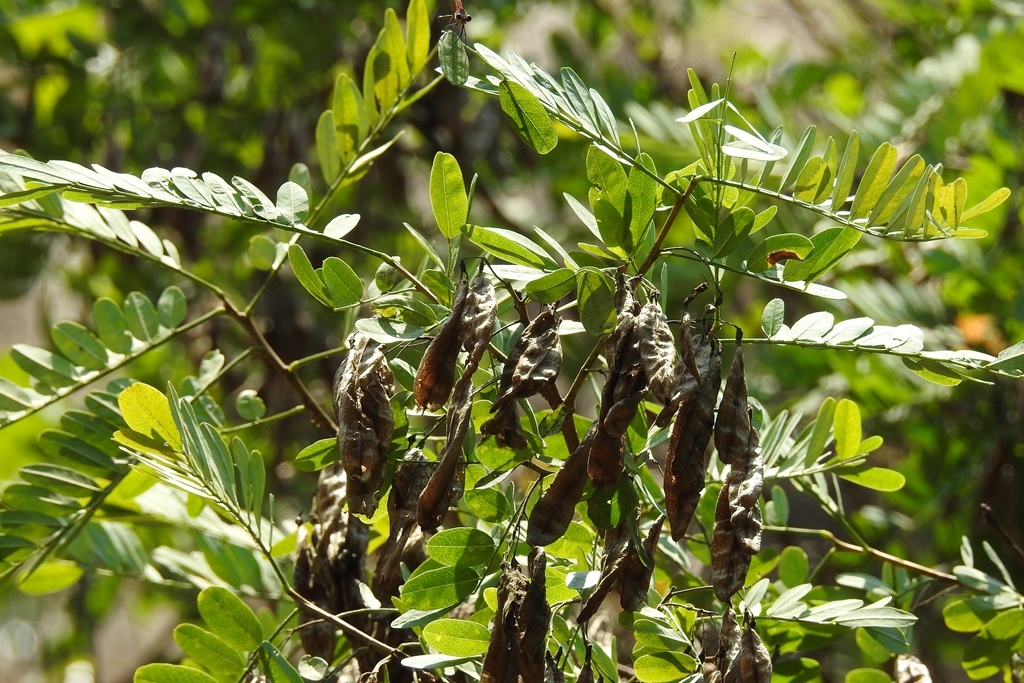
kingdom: Plantae
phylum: Tracheophyta
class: Magnoliopsida
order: Fabales
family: Fabaceae
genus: Diphysa
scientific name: Diphysa americana
